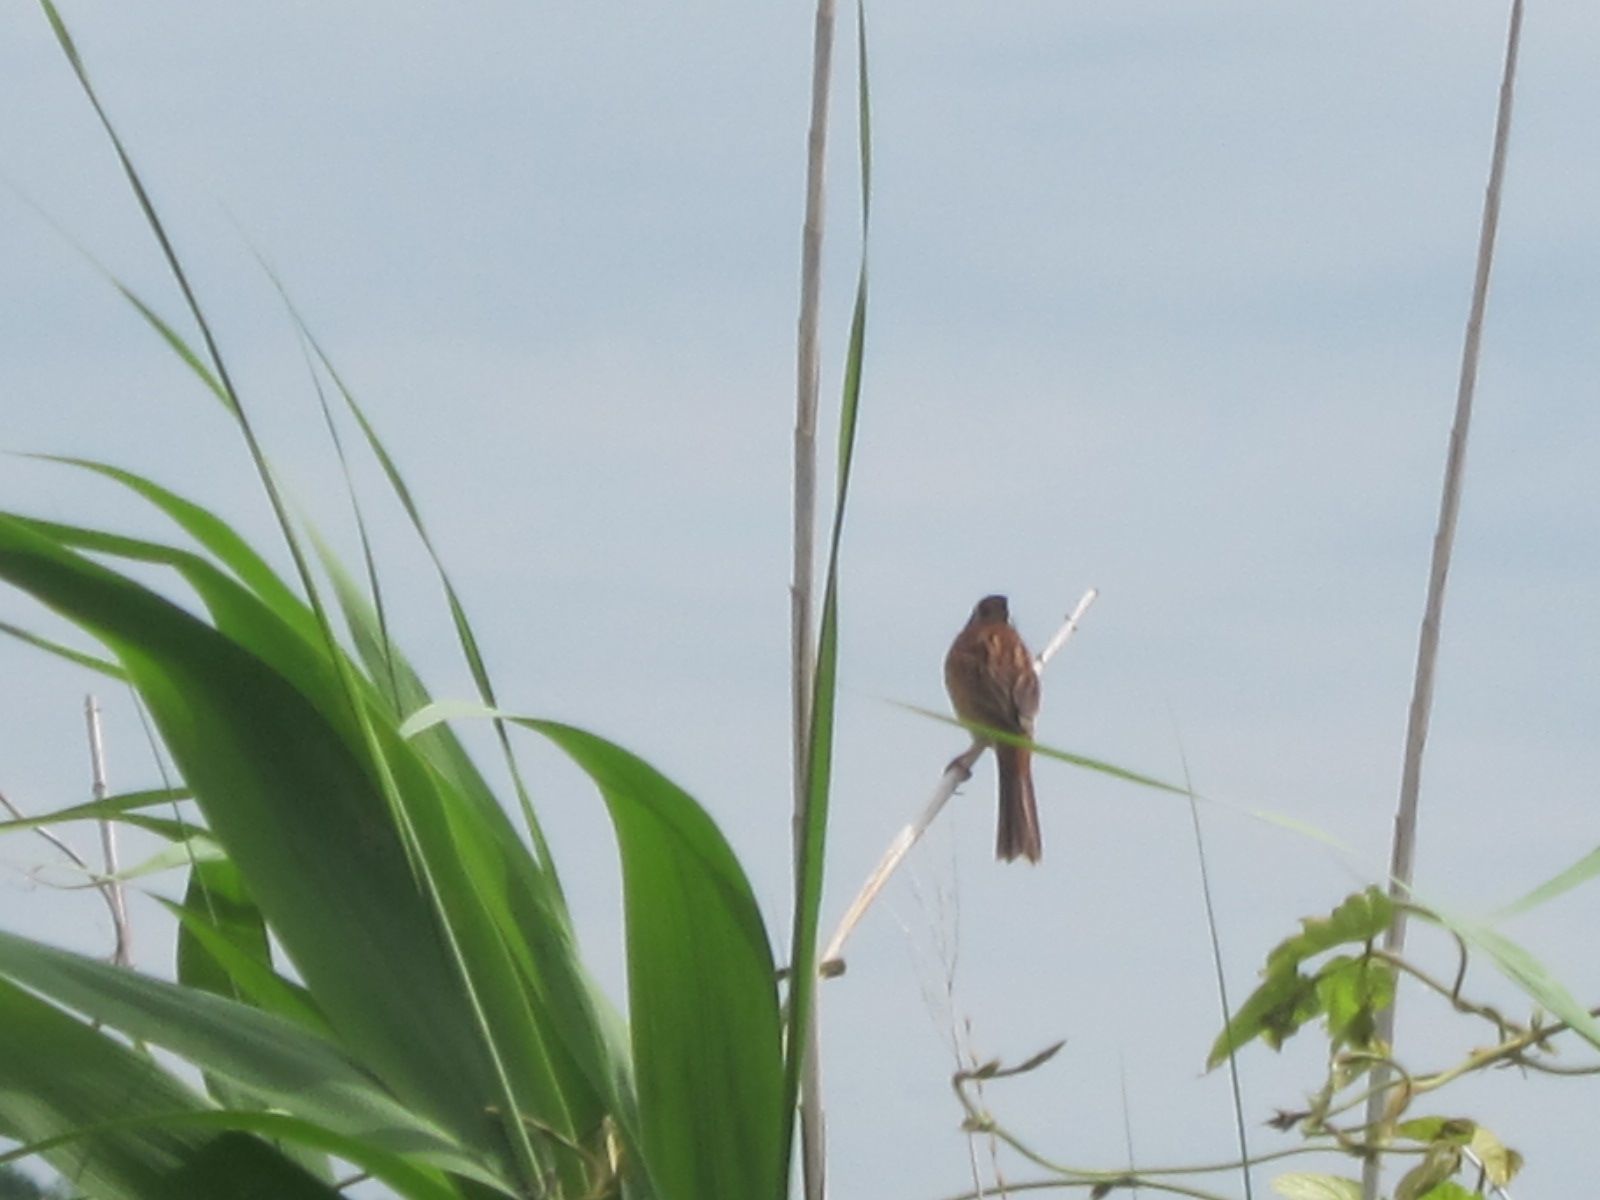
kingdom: Animalia
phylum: Chordata
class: Aves
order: Passeriformes
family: Emberizidae
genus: Emberiza
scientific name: Emberiza cioides
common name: Meadow bunting
